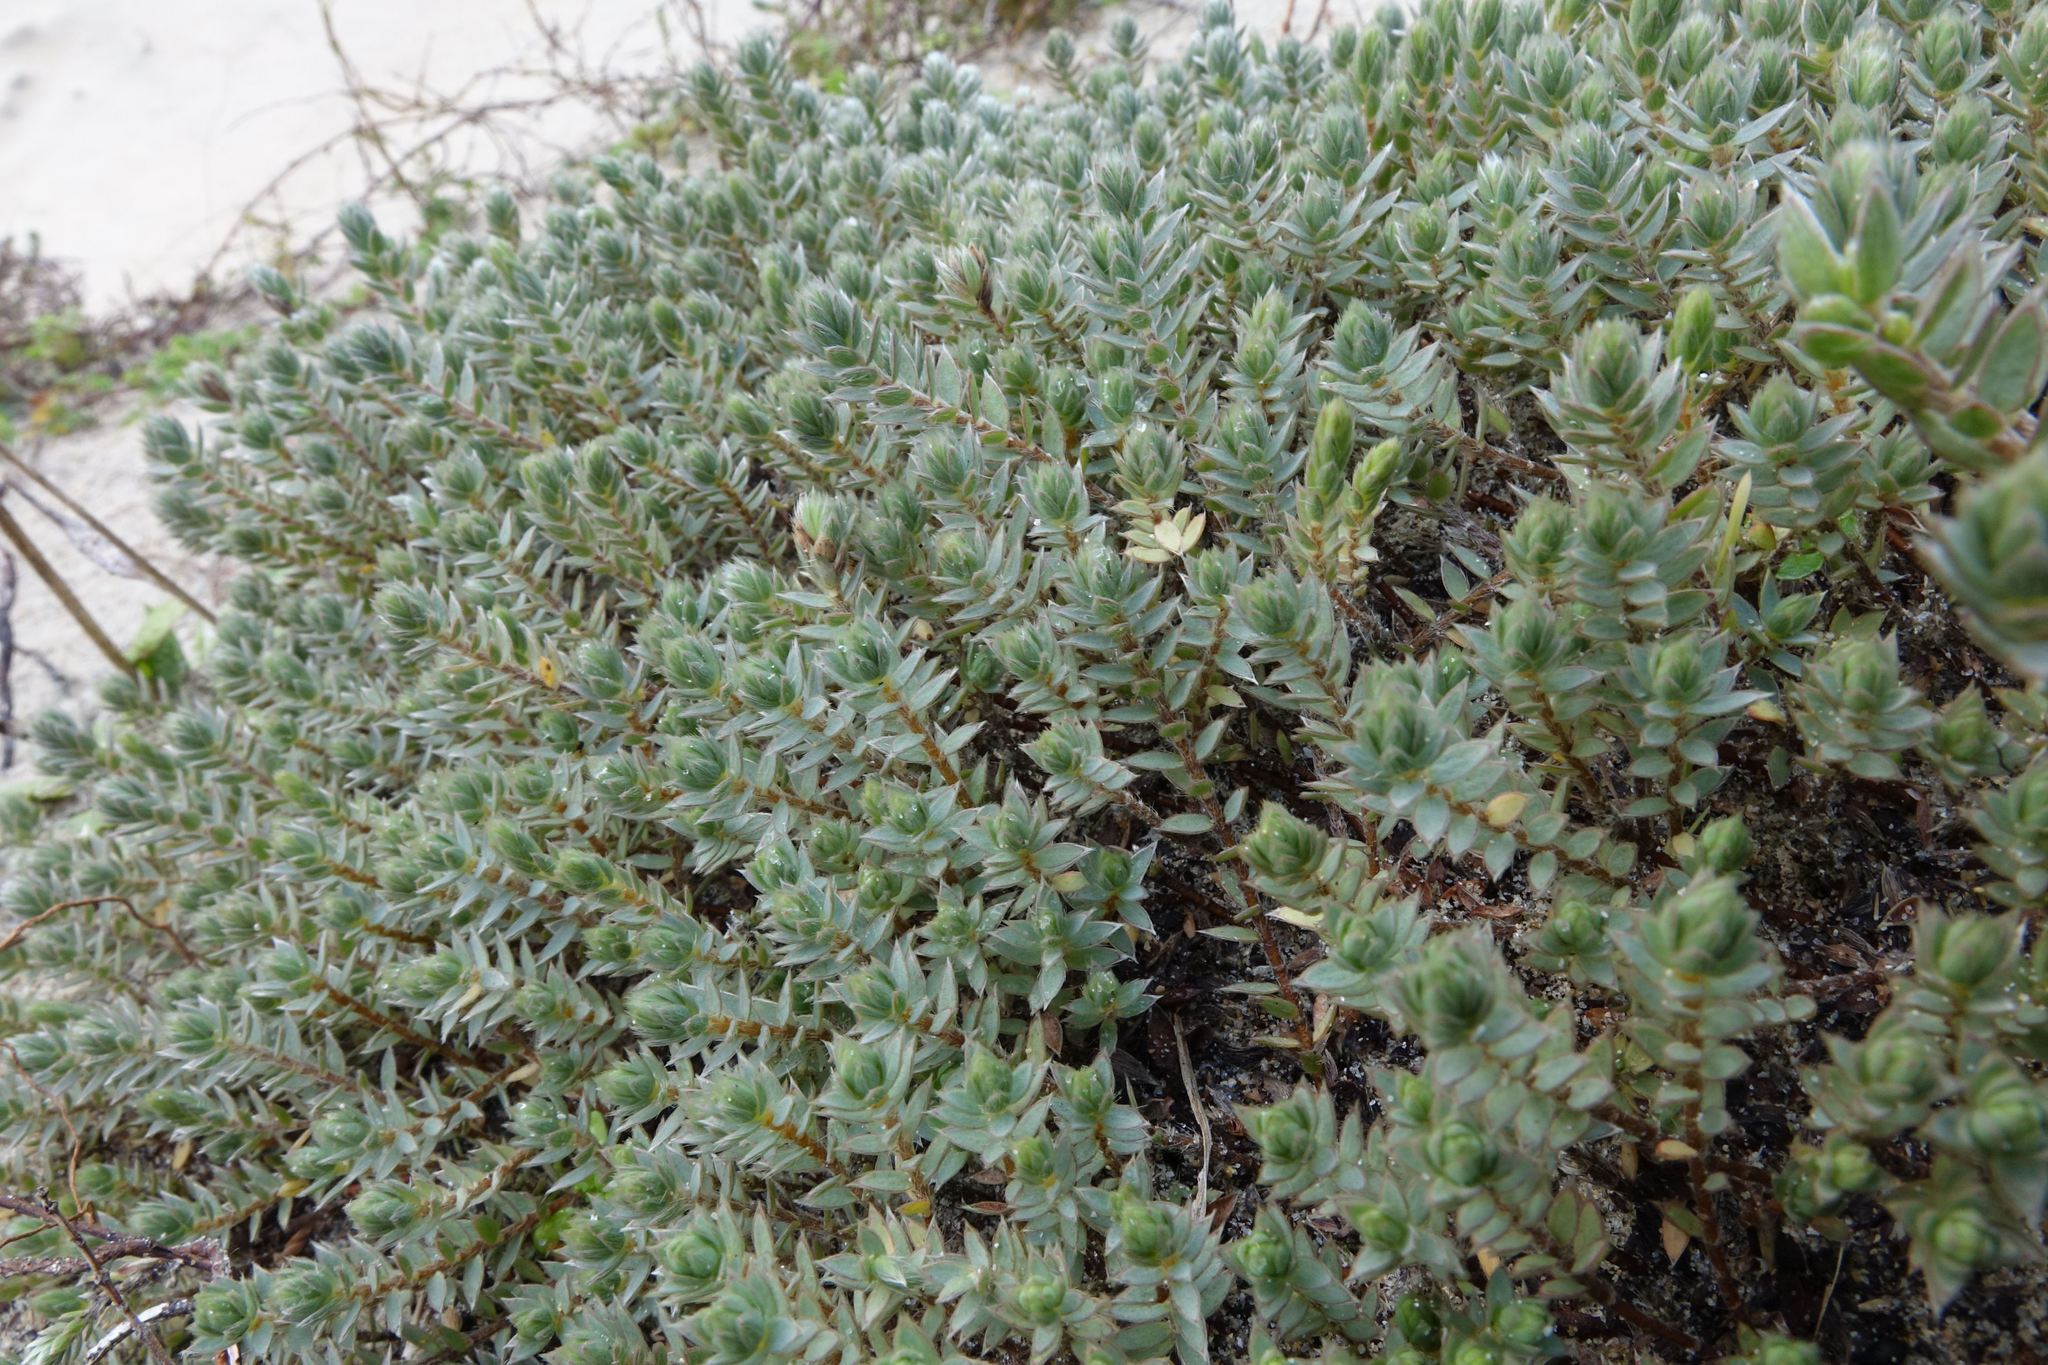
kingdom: Plantae
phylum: Tracheophyta
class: Magnoliopsida
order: Malvales
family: Thymelaeaceae
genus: Pimelea
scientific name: Pimelea lyallii
